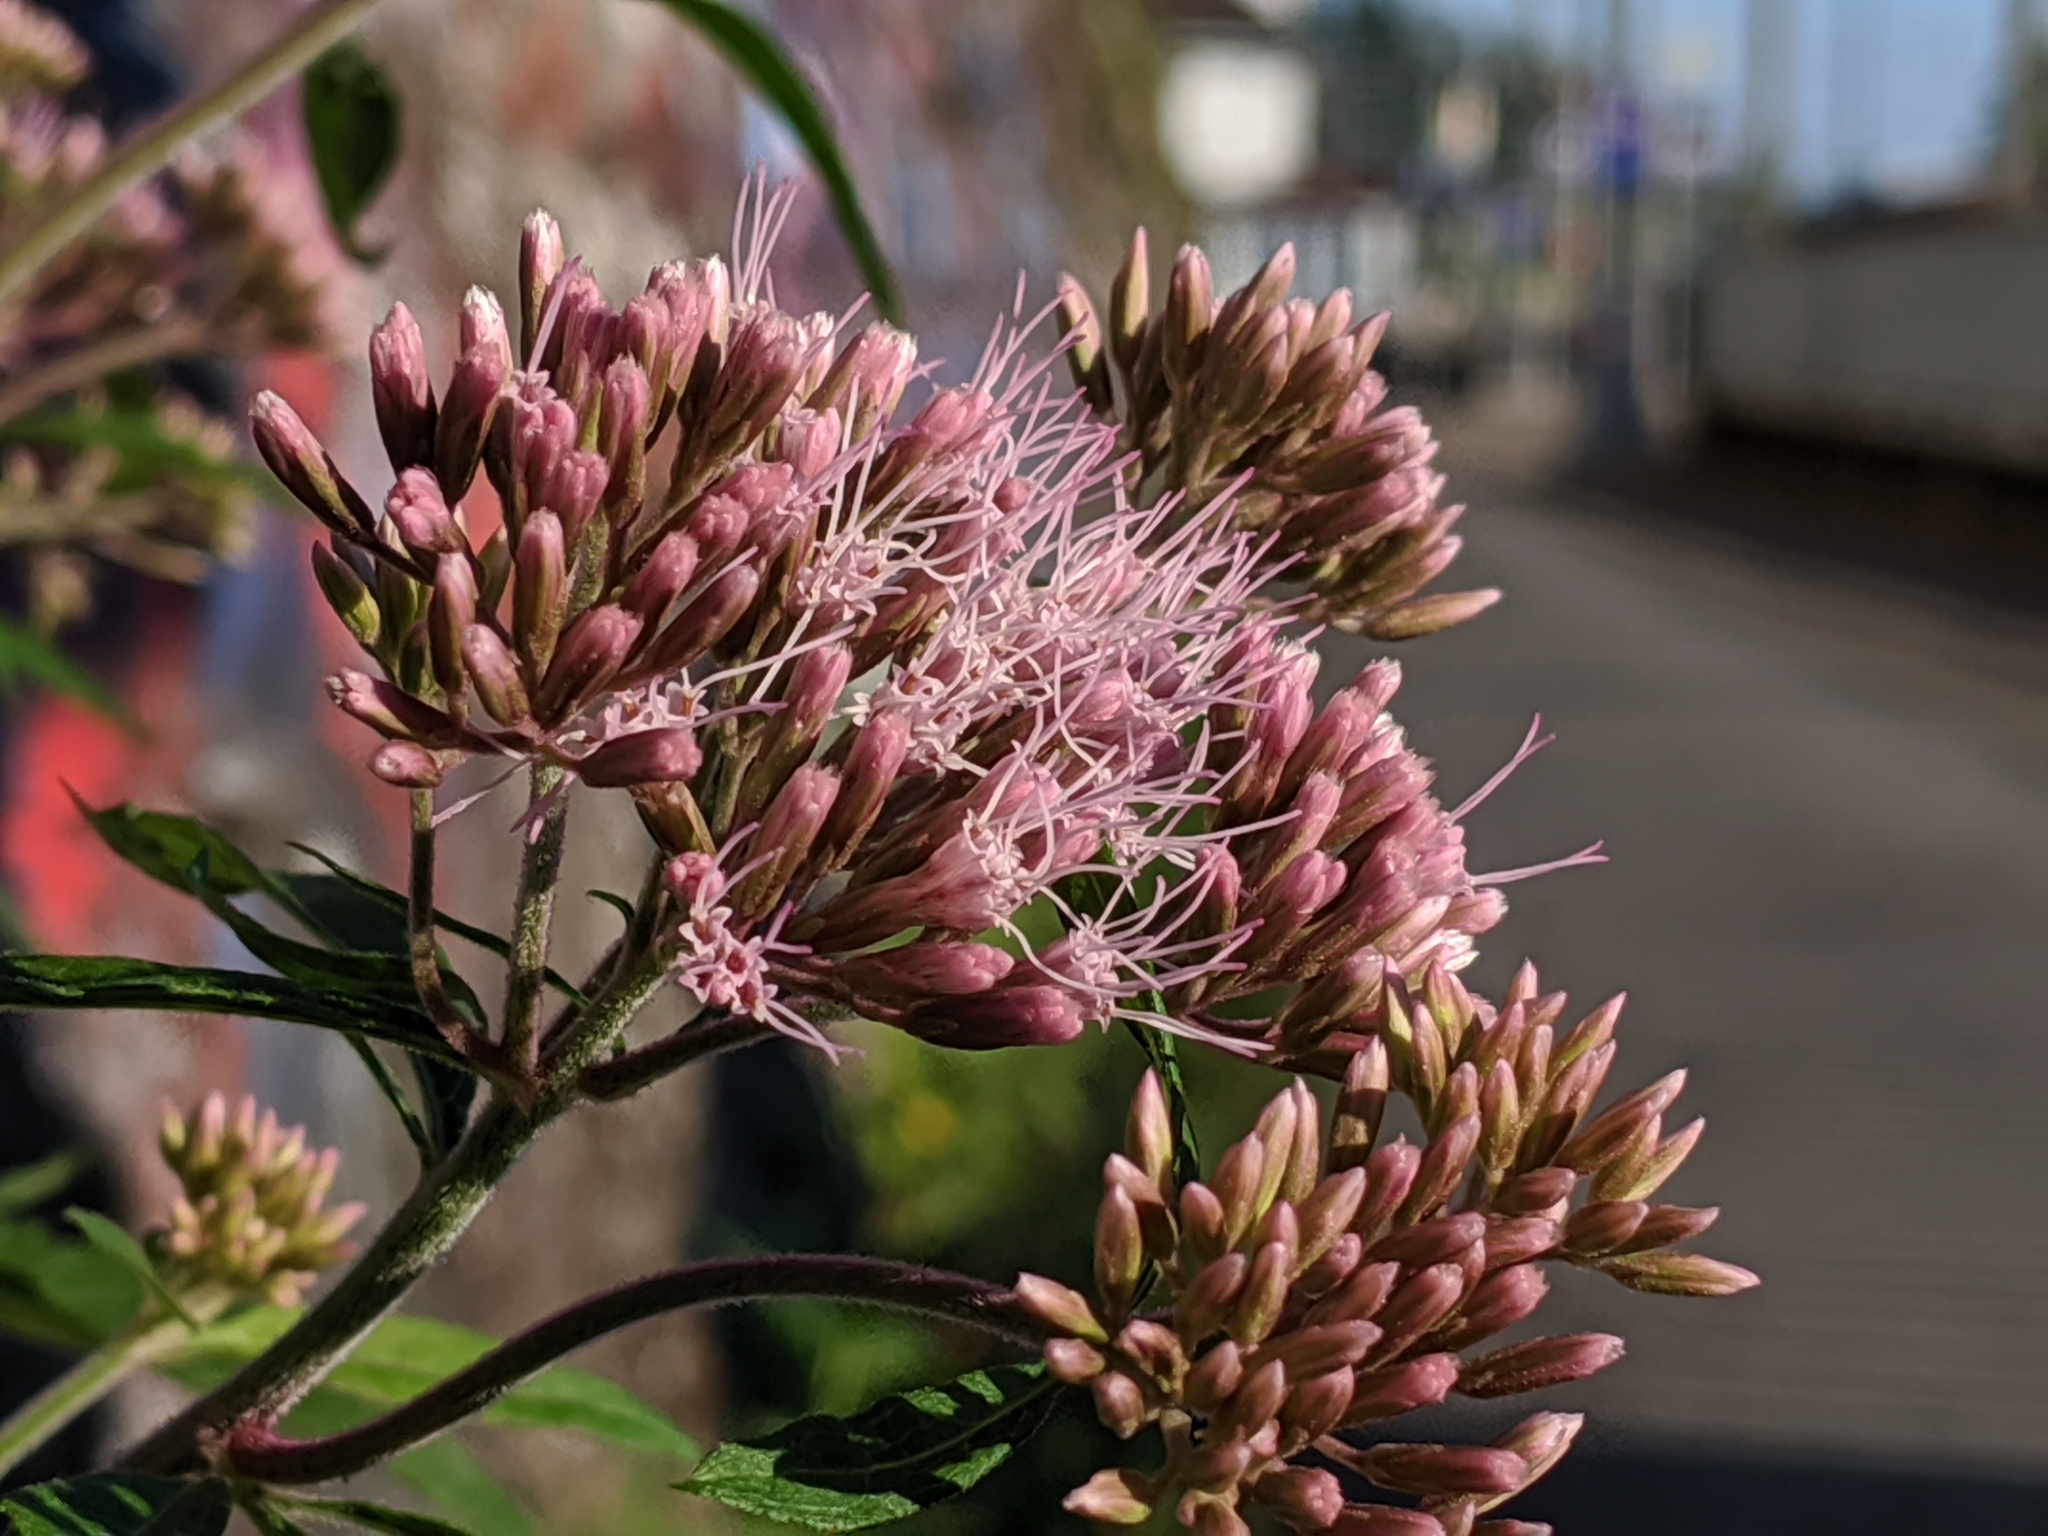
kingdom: Plantae
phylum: Tracheophyta
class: Magnoliopsida
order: Asterales
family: Asteraceae
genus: Eupatorium
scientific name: Eupatorium cannabinum
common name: Hemp-agrimony
